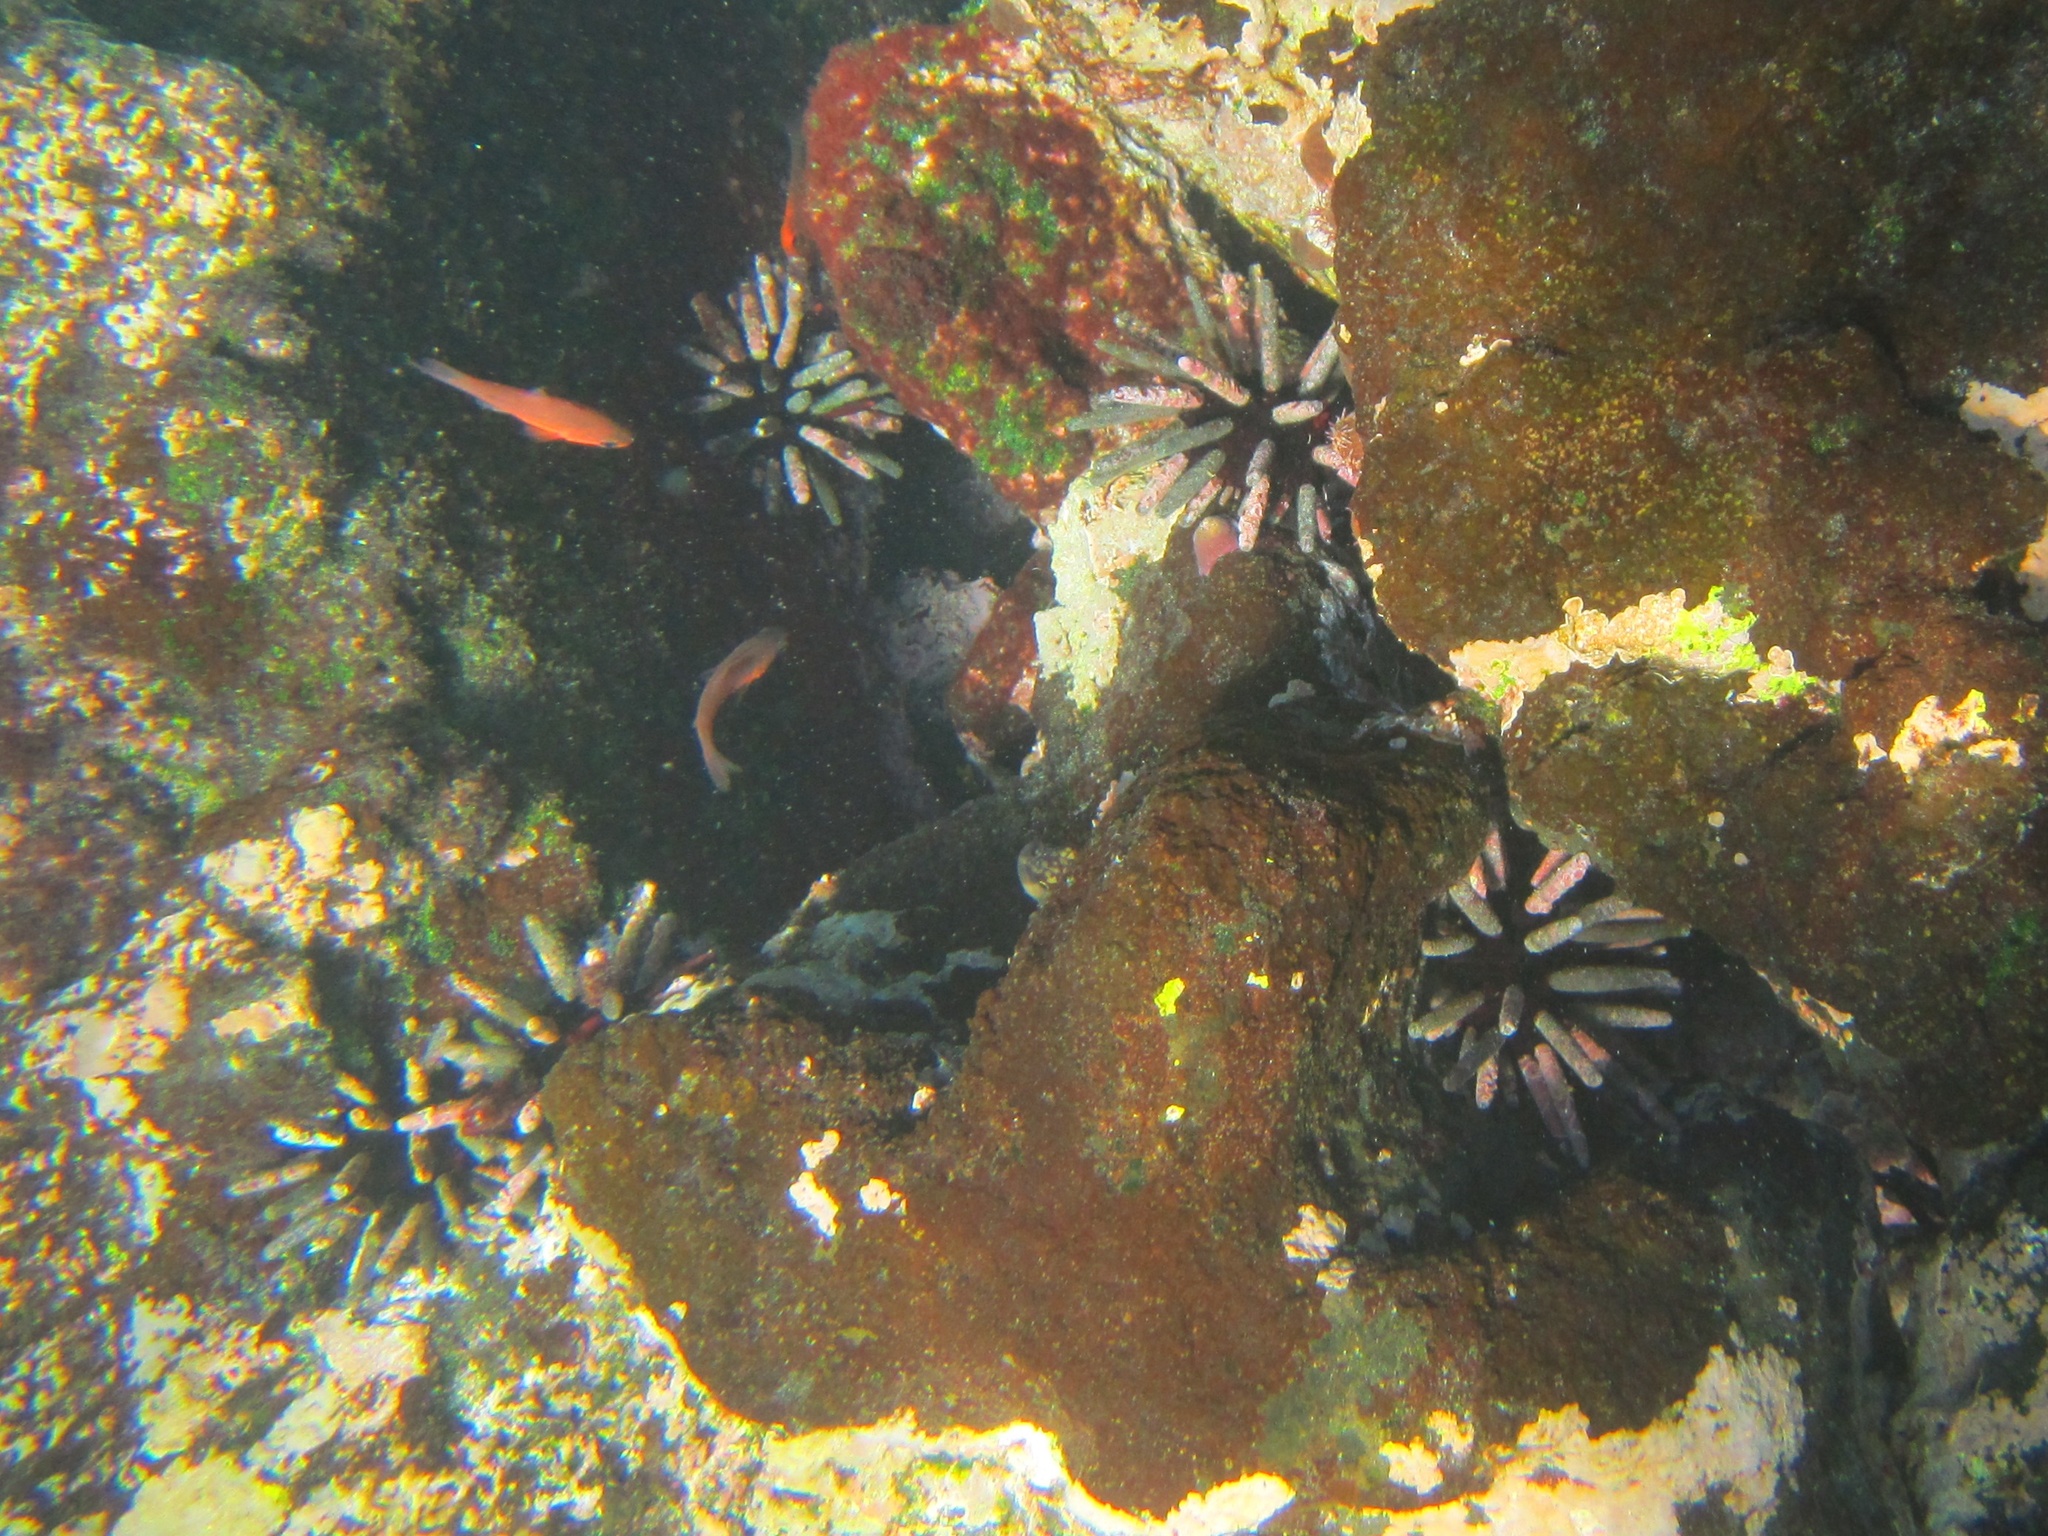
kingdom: Animalia
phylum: Echinodermata
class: Echinoidea
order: Cidaroida
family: Cidaridae
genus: Eucidaris
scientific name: Eucidaris galapagensis
